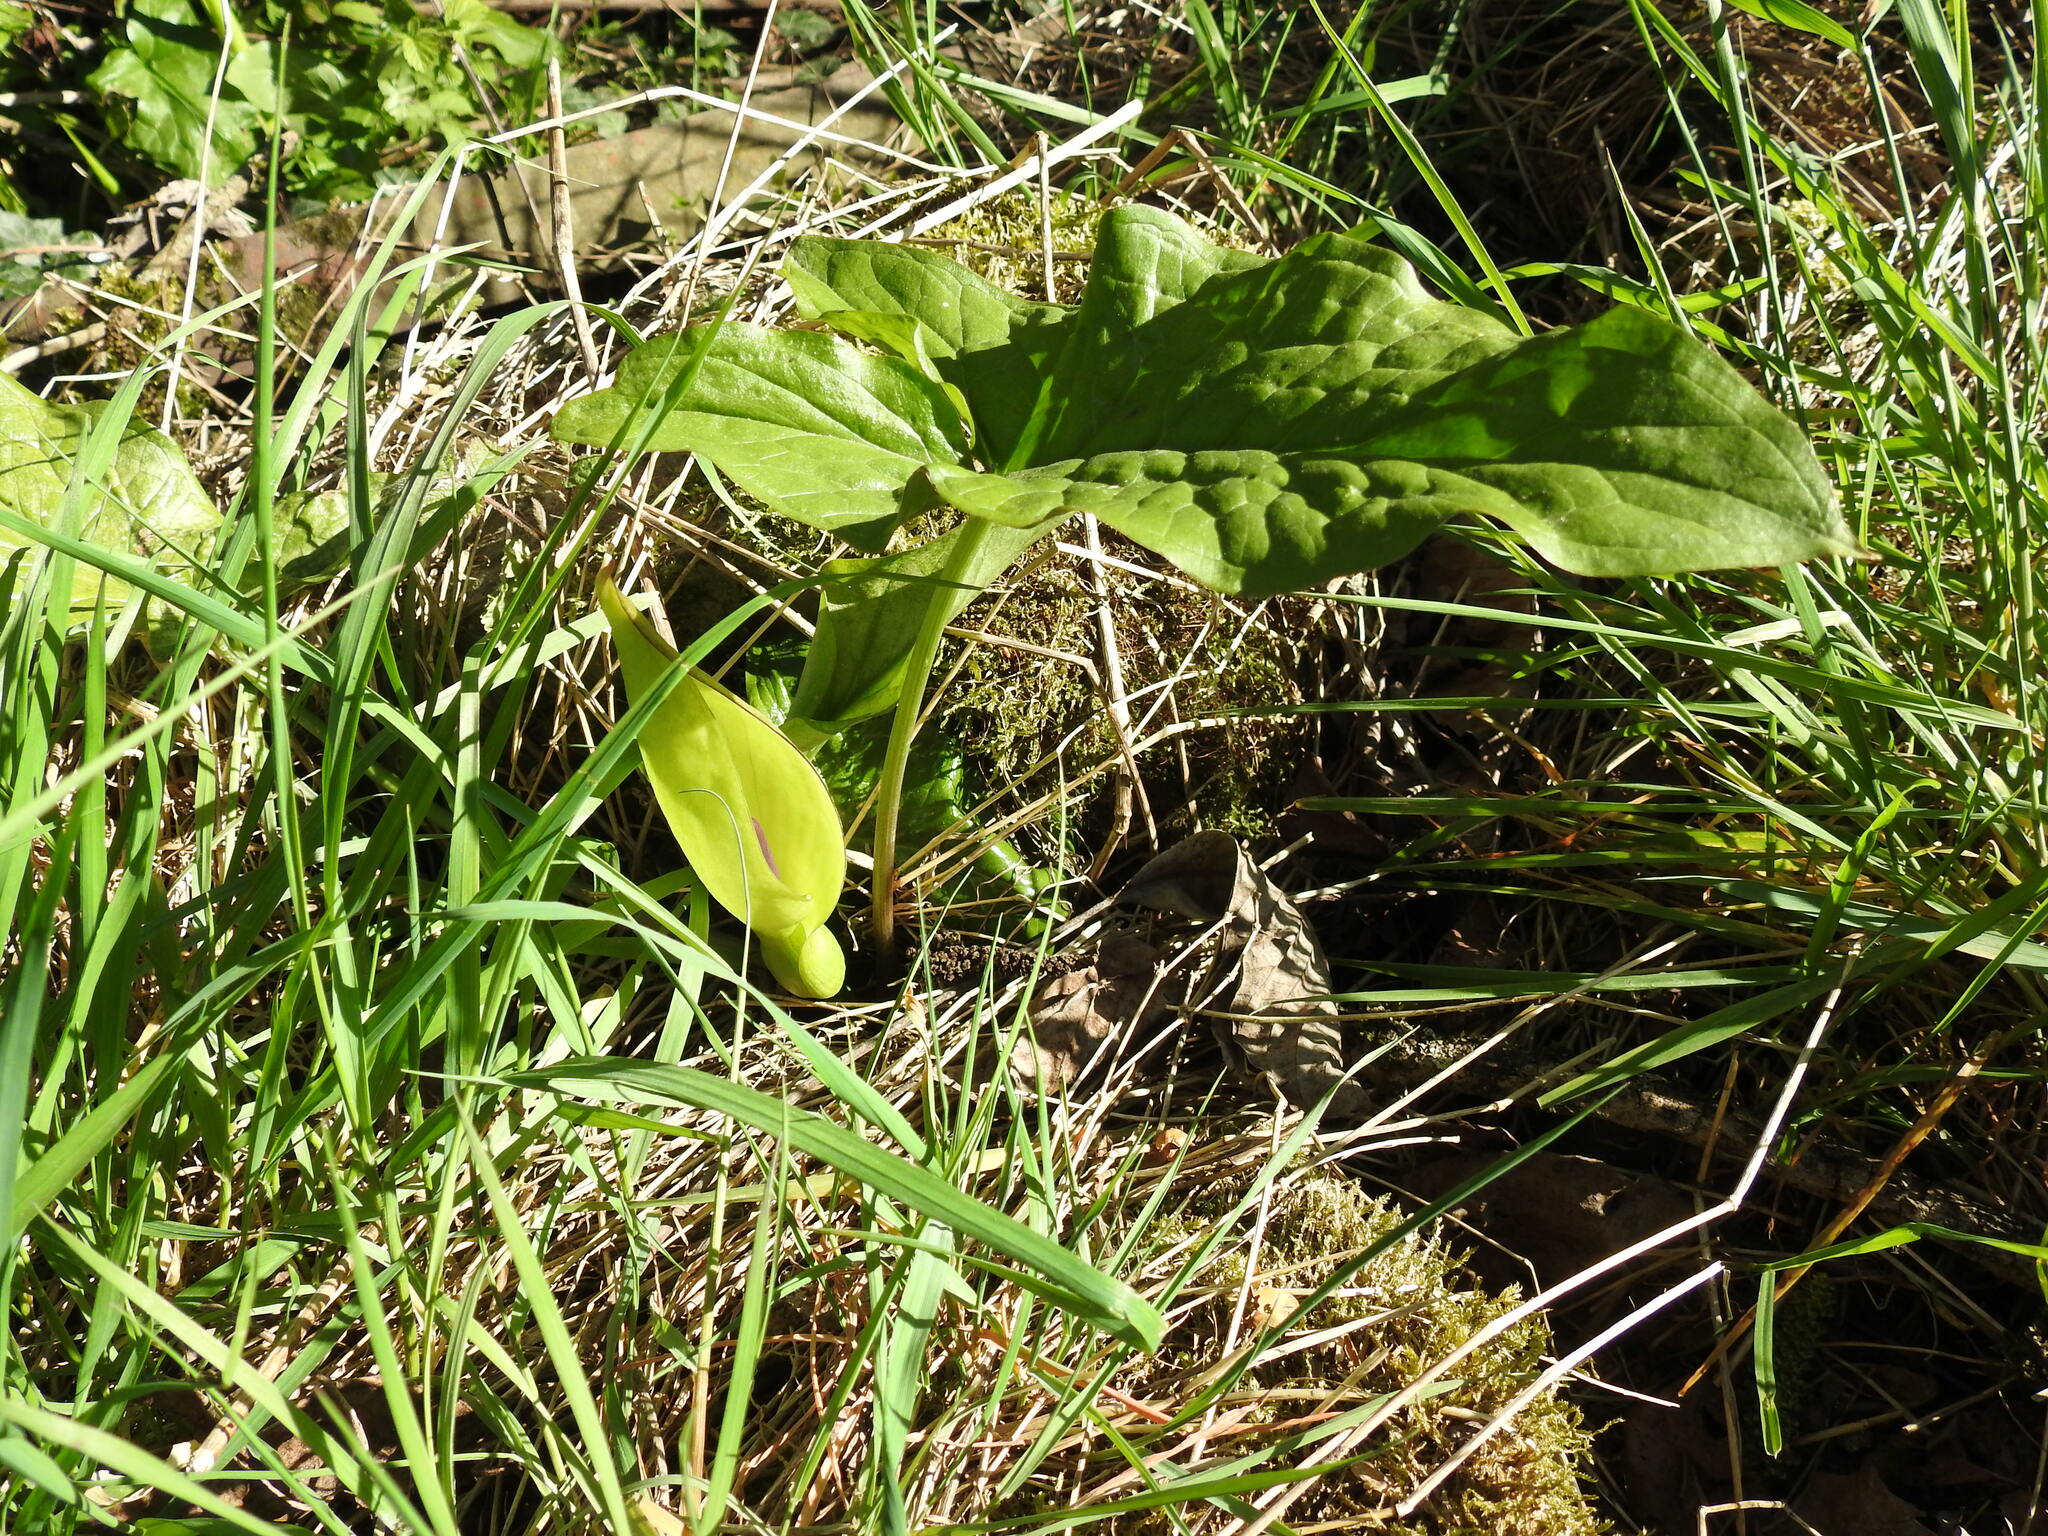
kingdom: Plantae
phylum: Tracheophyta
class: Liliopsida
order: Alismatales
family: Araceae
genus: Arum
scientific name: Arum maculatum
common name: Lords-and-ladies
